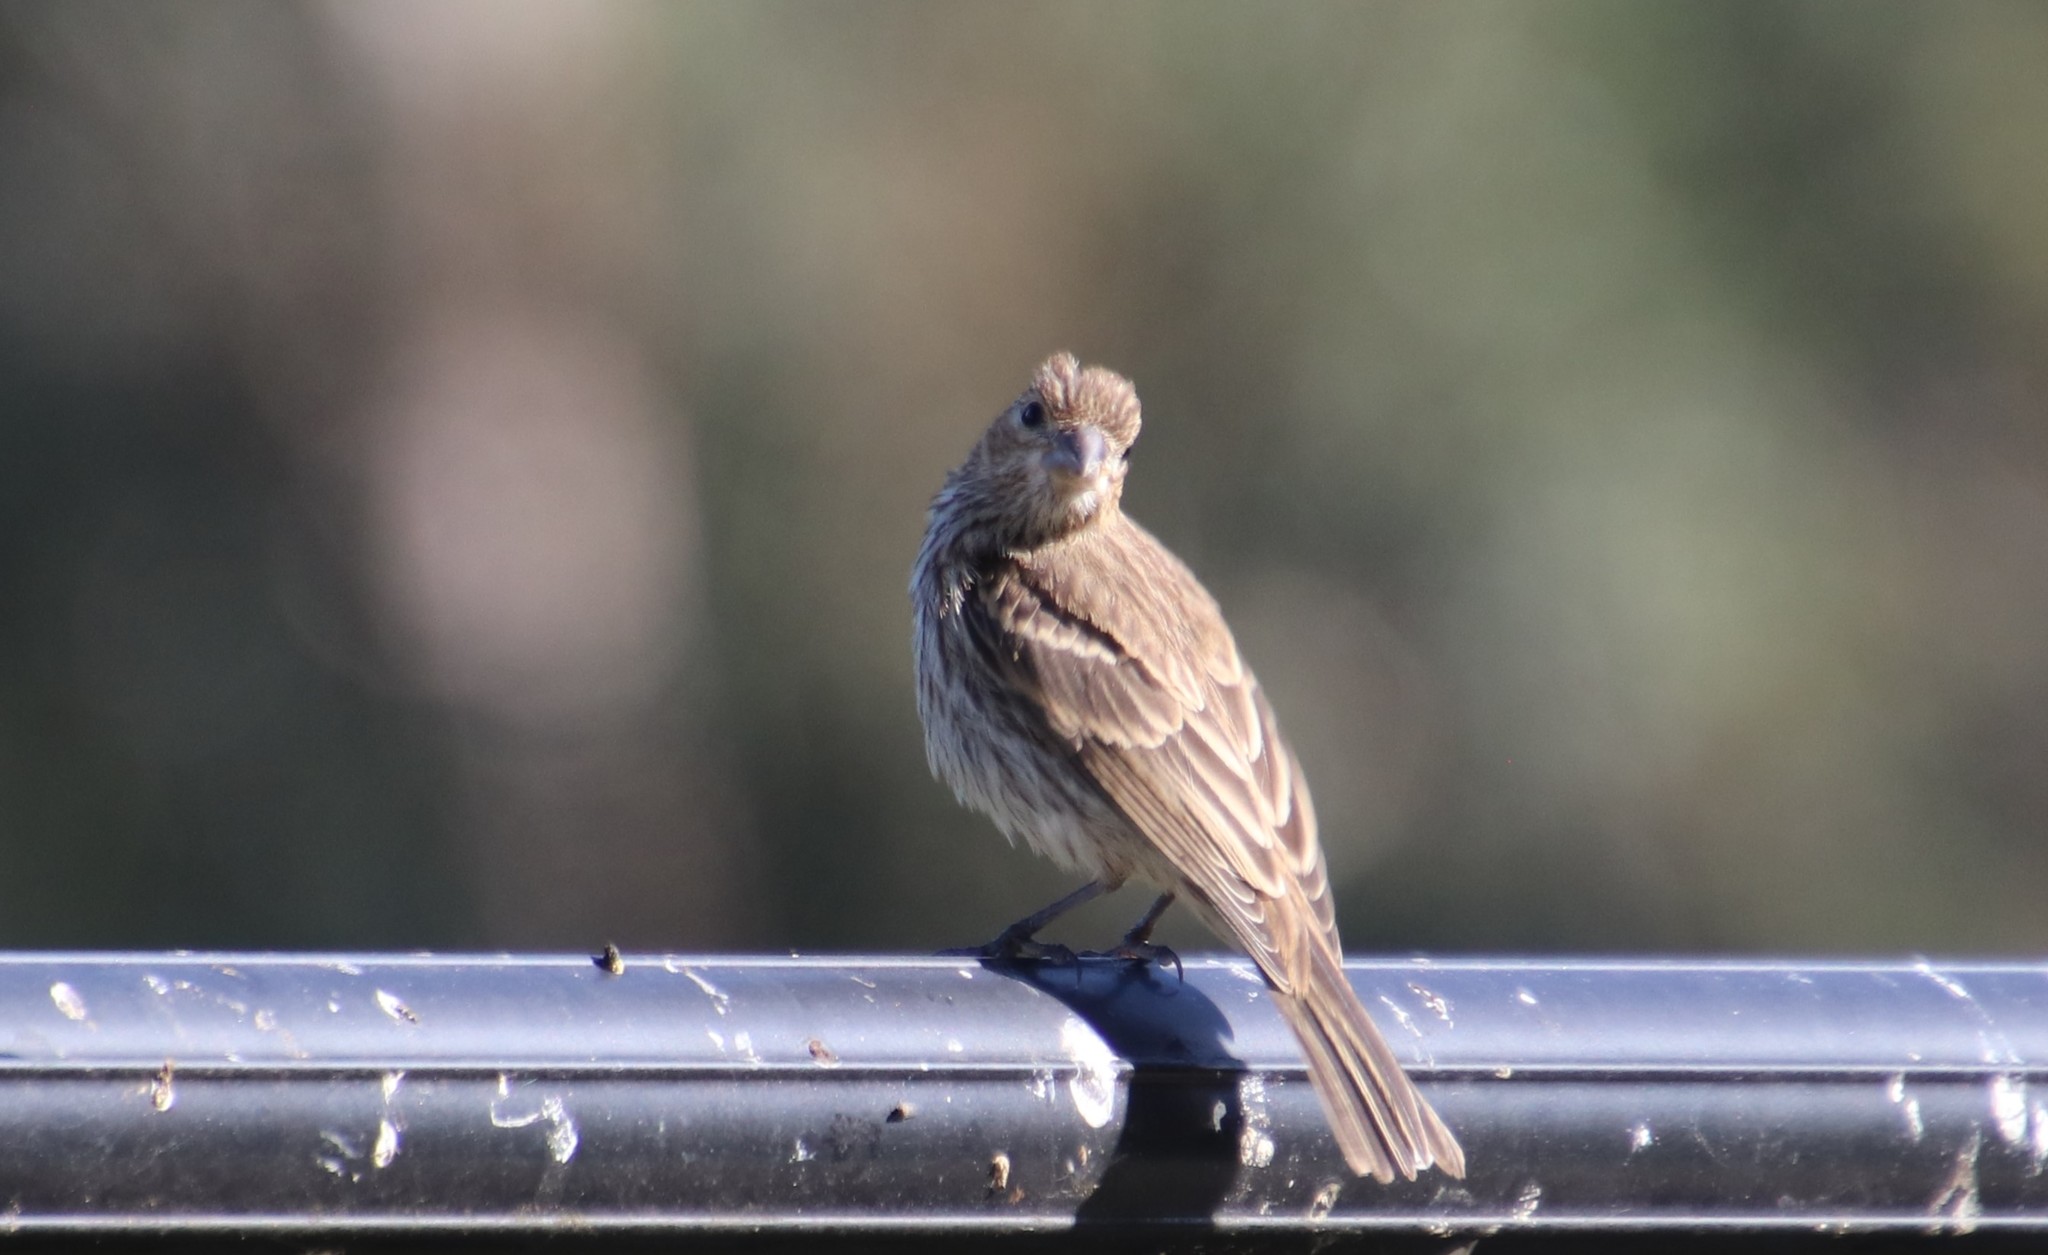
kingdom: Animalia
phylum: Chordata
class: Aves
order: Passeriformes
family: Fringillidae
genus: Haemorhous
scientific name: Haemorhous mexicanus
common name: House finch
